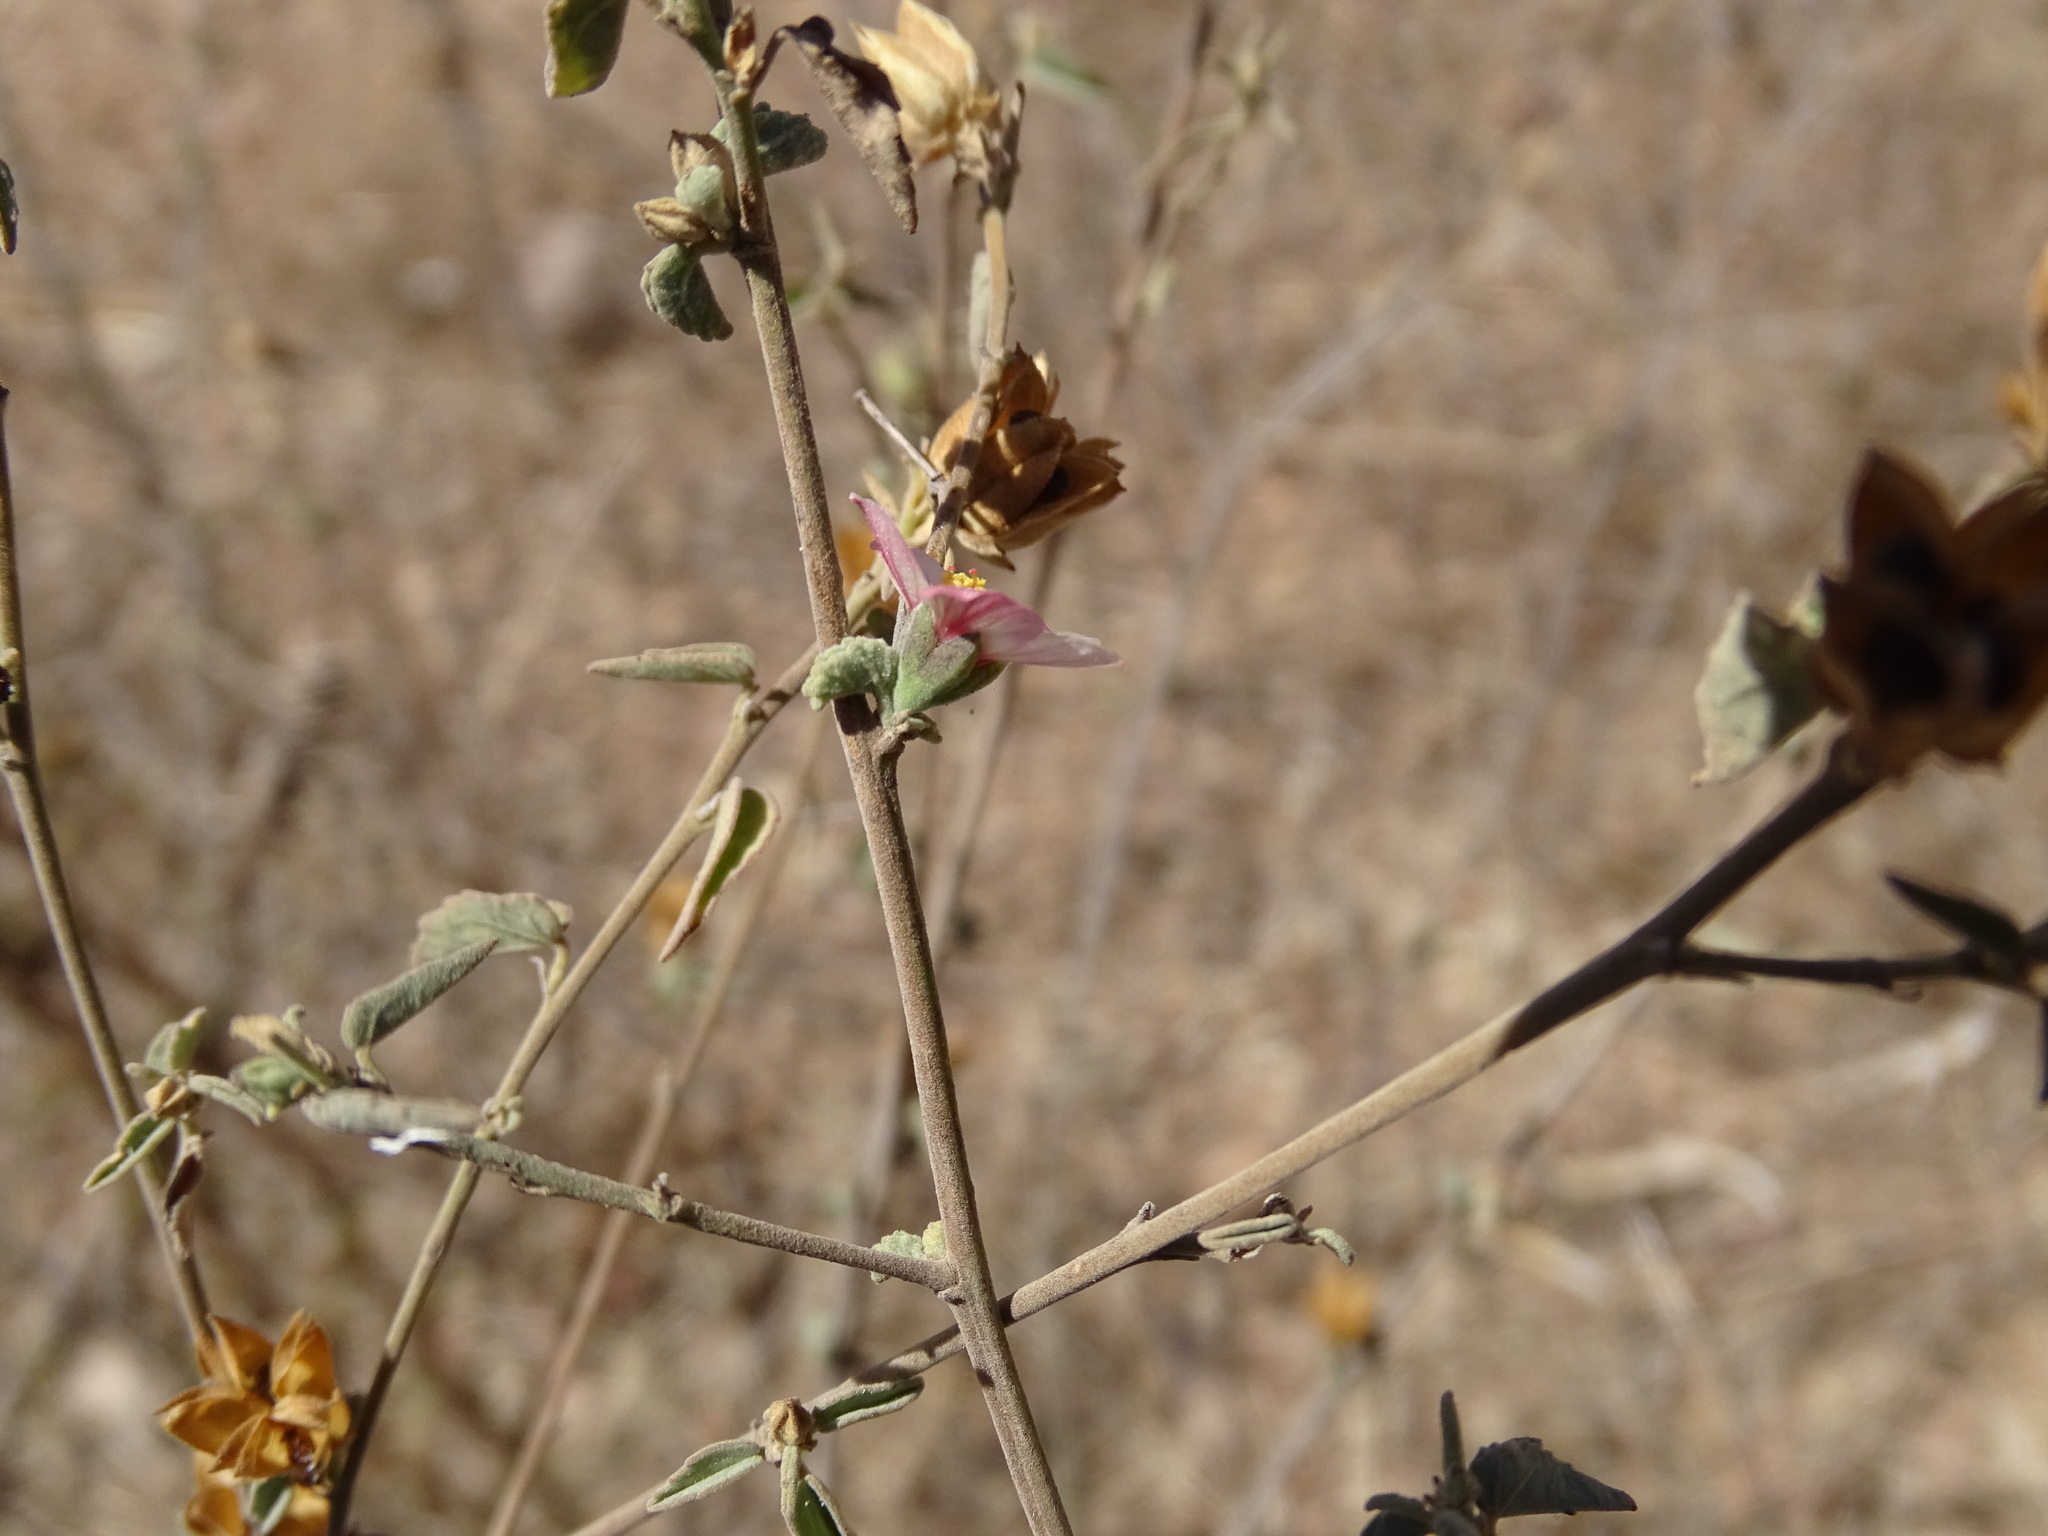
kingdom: Plantae
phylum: Tracheophyta
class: Magnoliopsida
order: Malvales
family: Malvaceae
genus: Abutilon
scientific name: Abutilon incanum
